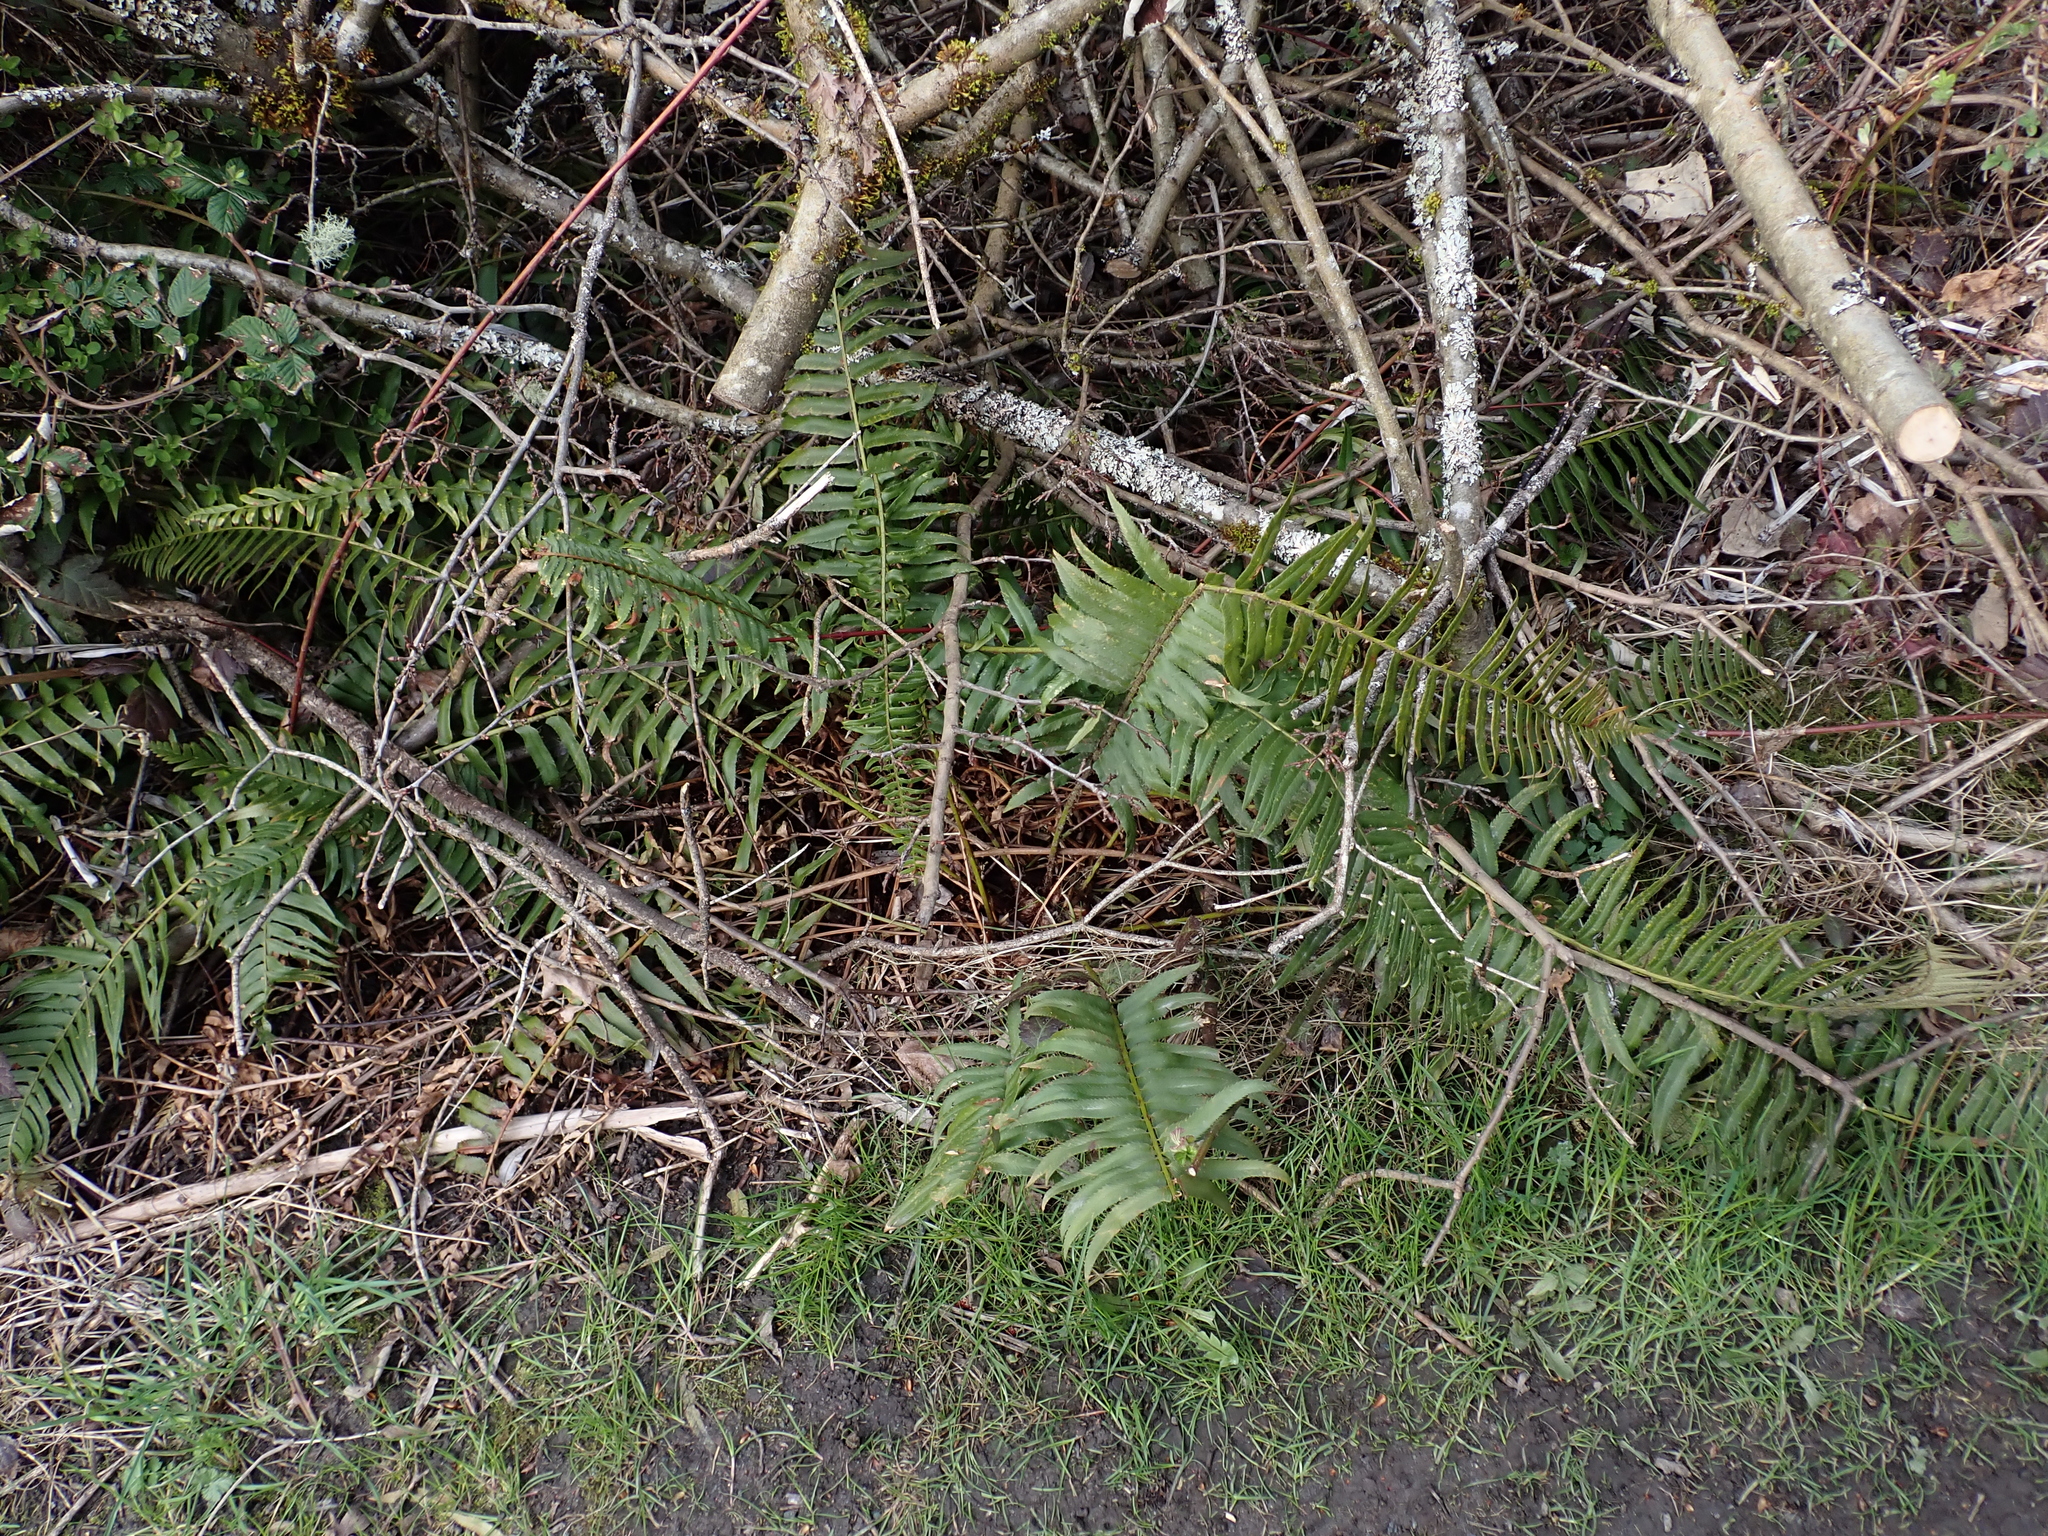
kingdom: Plantae
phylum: Tracheophyta
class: Polypodiopsida
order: Polypodiales
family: Dryopteridaceae
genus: Polystichum
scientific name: Polystichum munitum
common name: Western sword-fern
